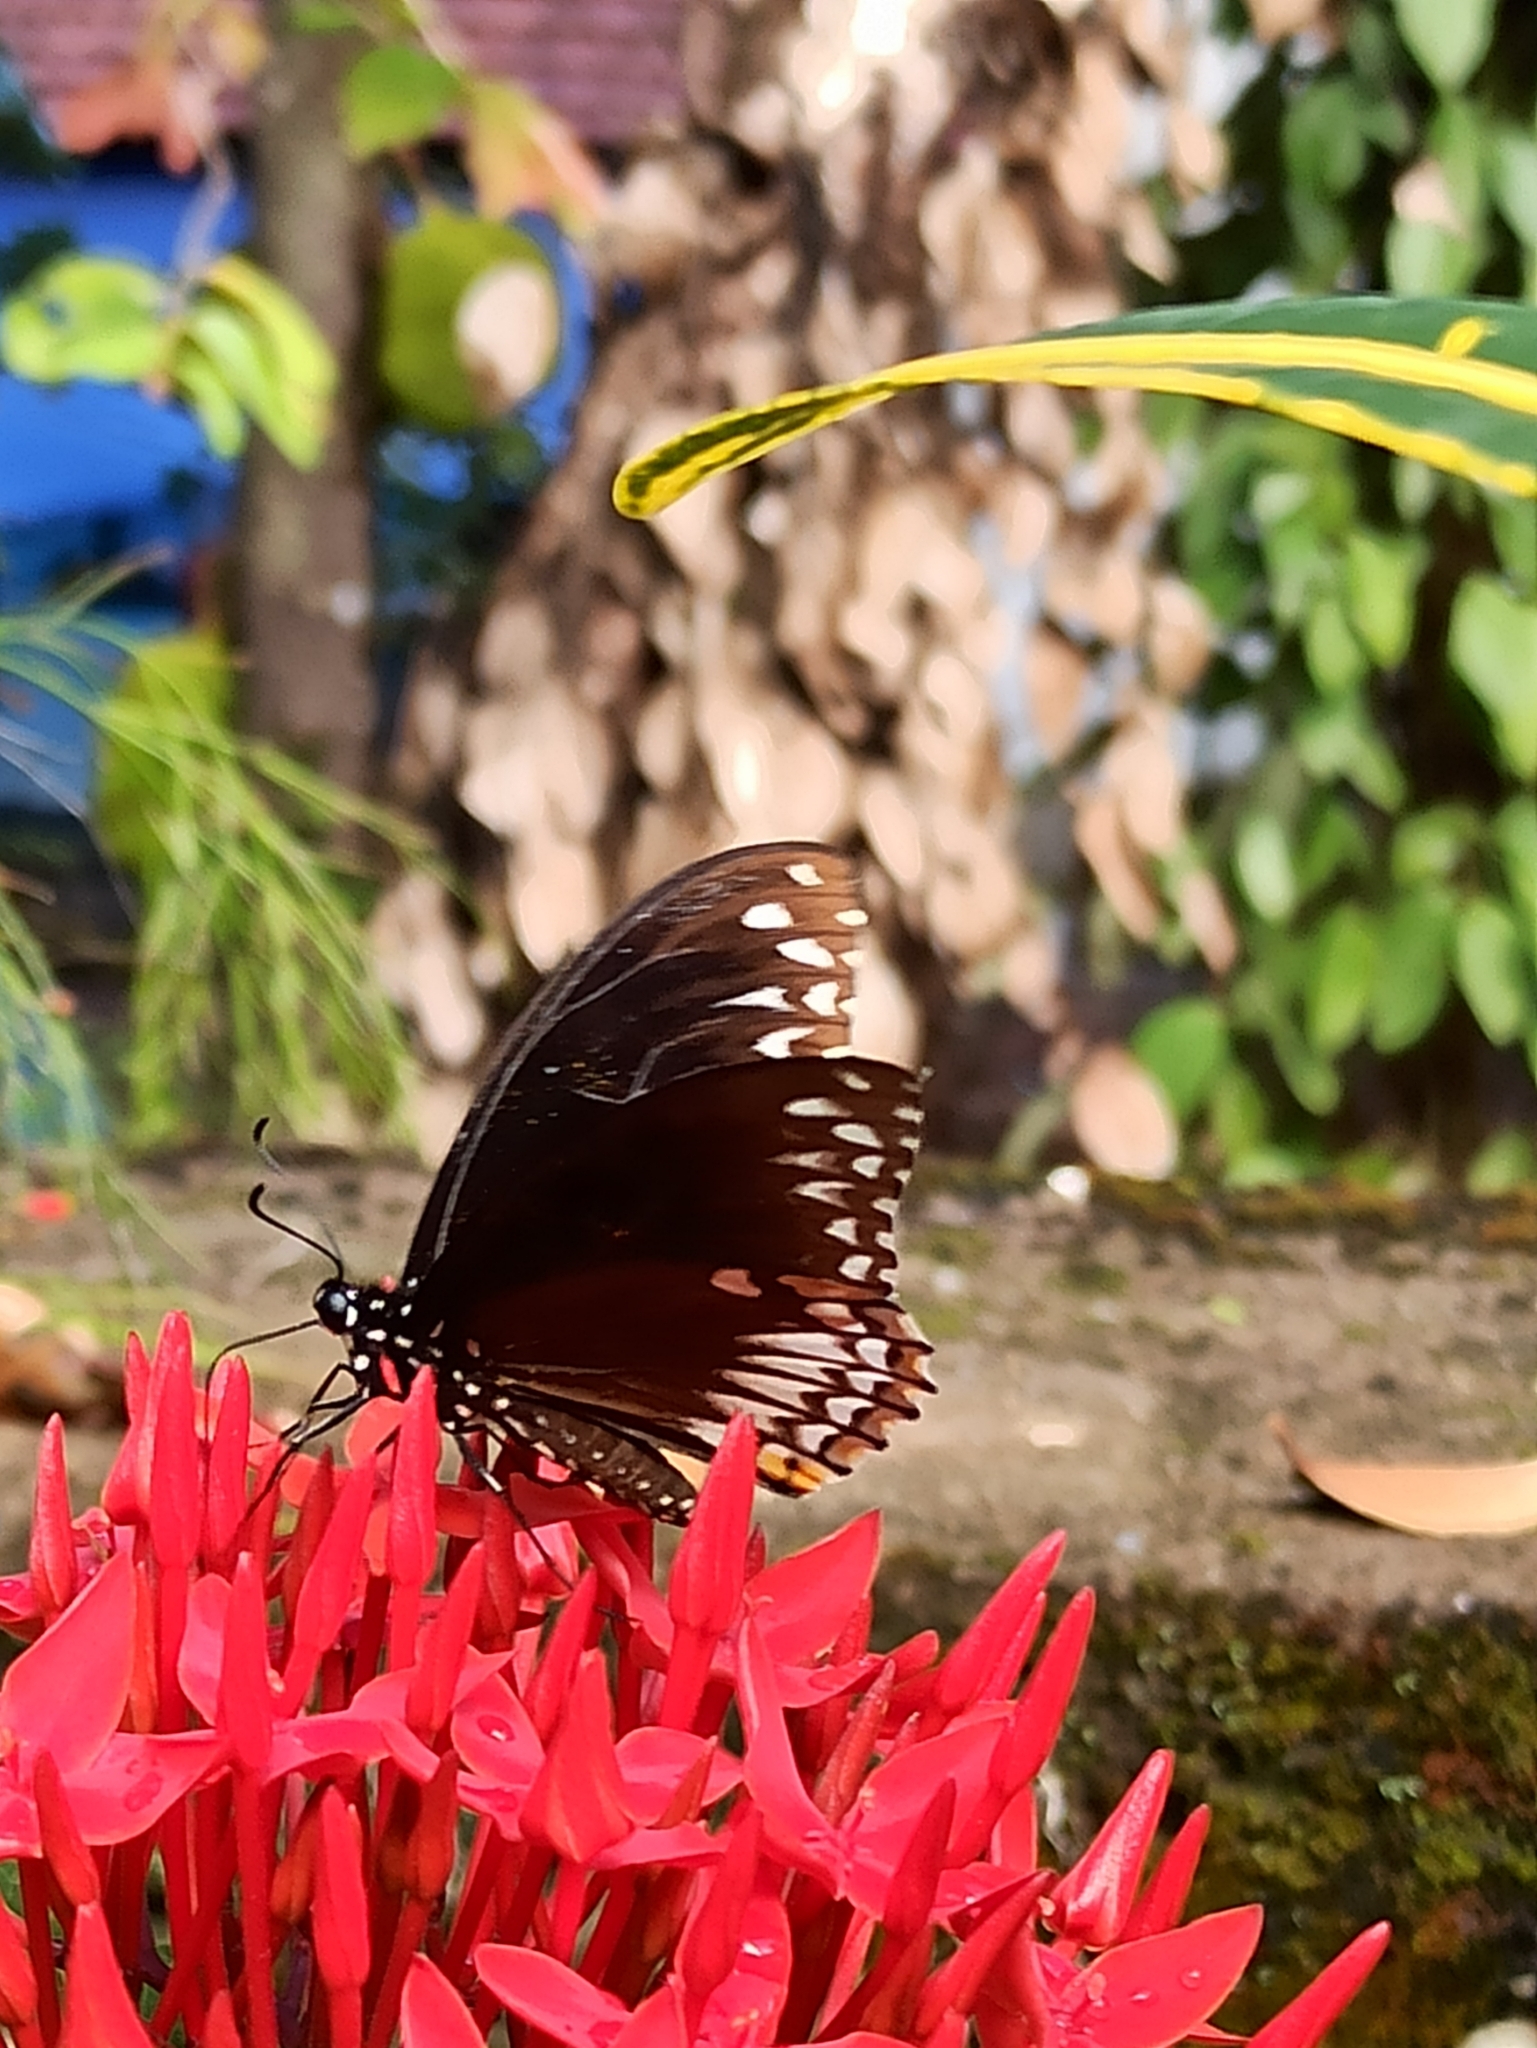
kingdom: Animalia
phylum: Arthropoda
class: Insecta
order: Lepidoptera
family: Papilionidae
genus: Chilasa
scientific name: Chilasa clytia
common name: Common mime
